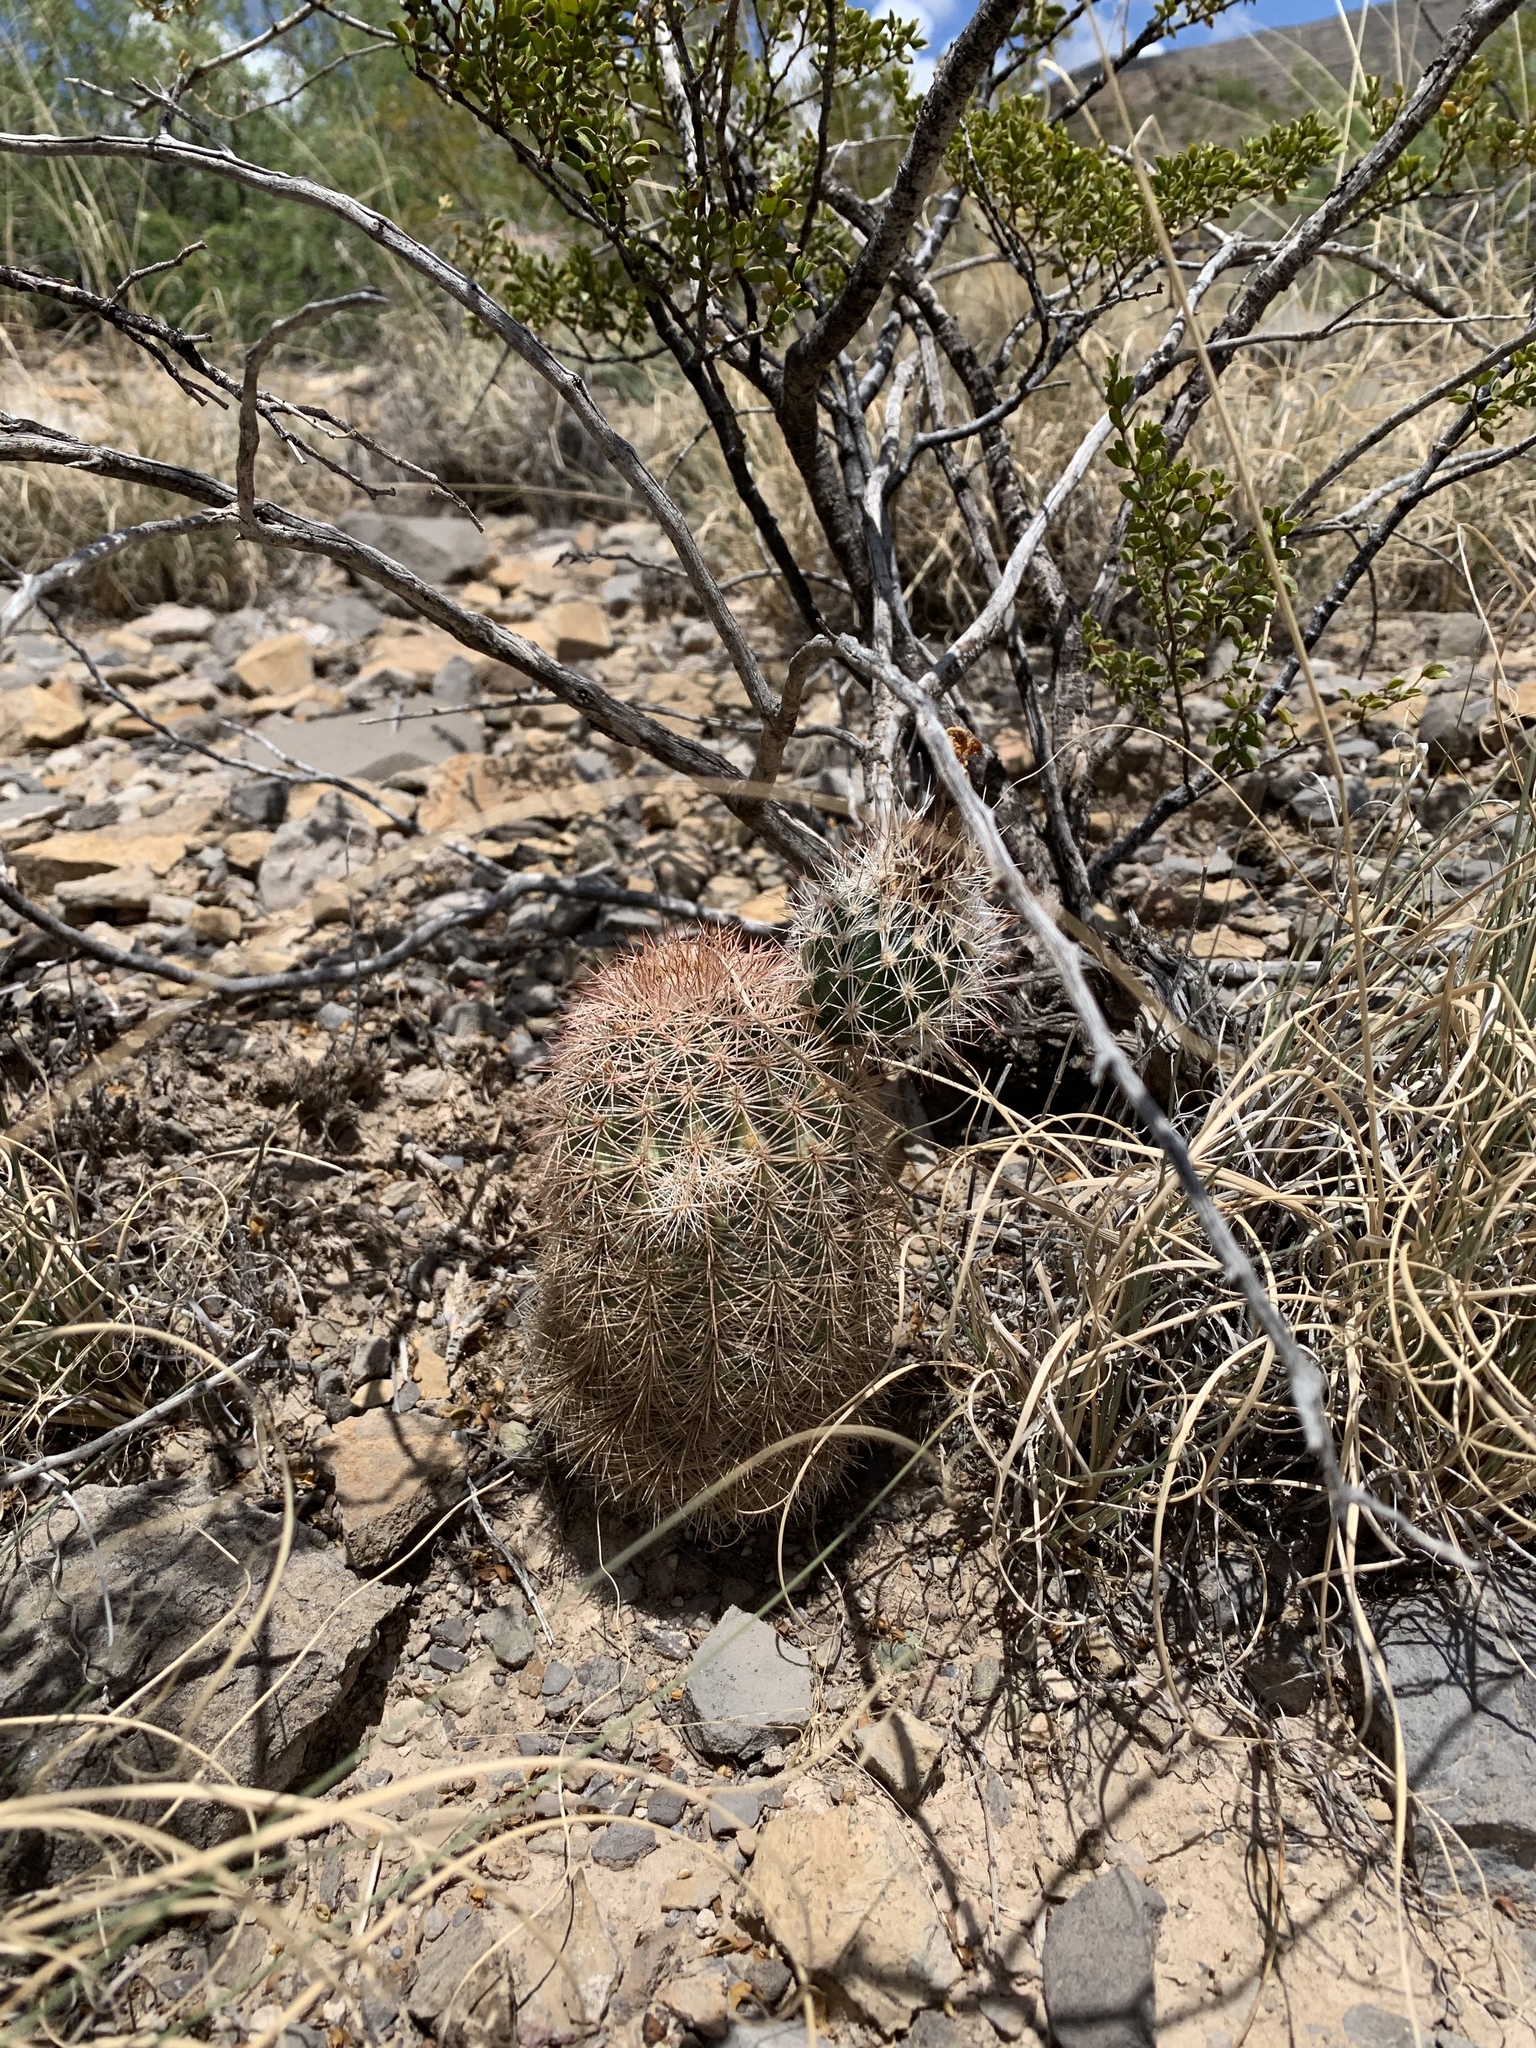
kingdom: Plantae
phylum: Tracheophyta
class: Magnoliopsida
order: Caryophyllales
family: Cactaceae
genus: Echinocereus
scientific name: Echinocereus dasyacanthus
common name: Spiny hedgehog cactus
